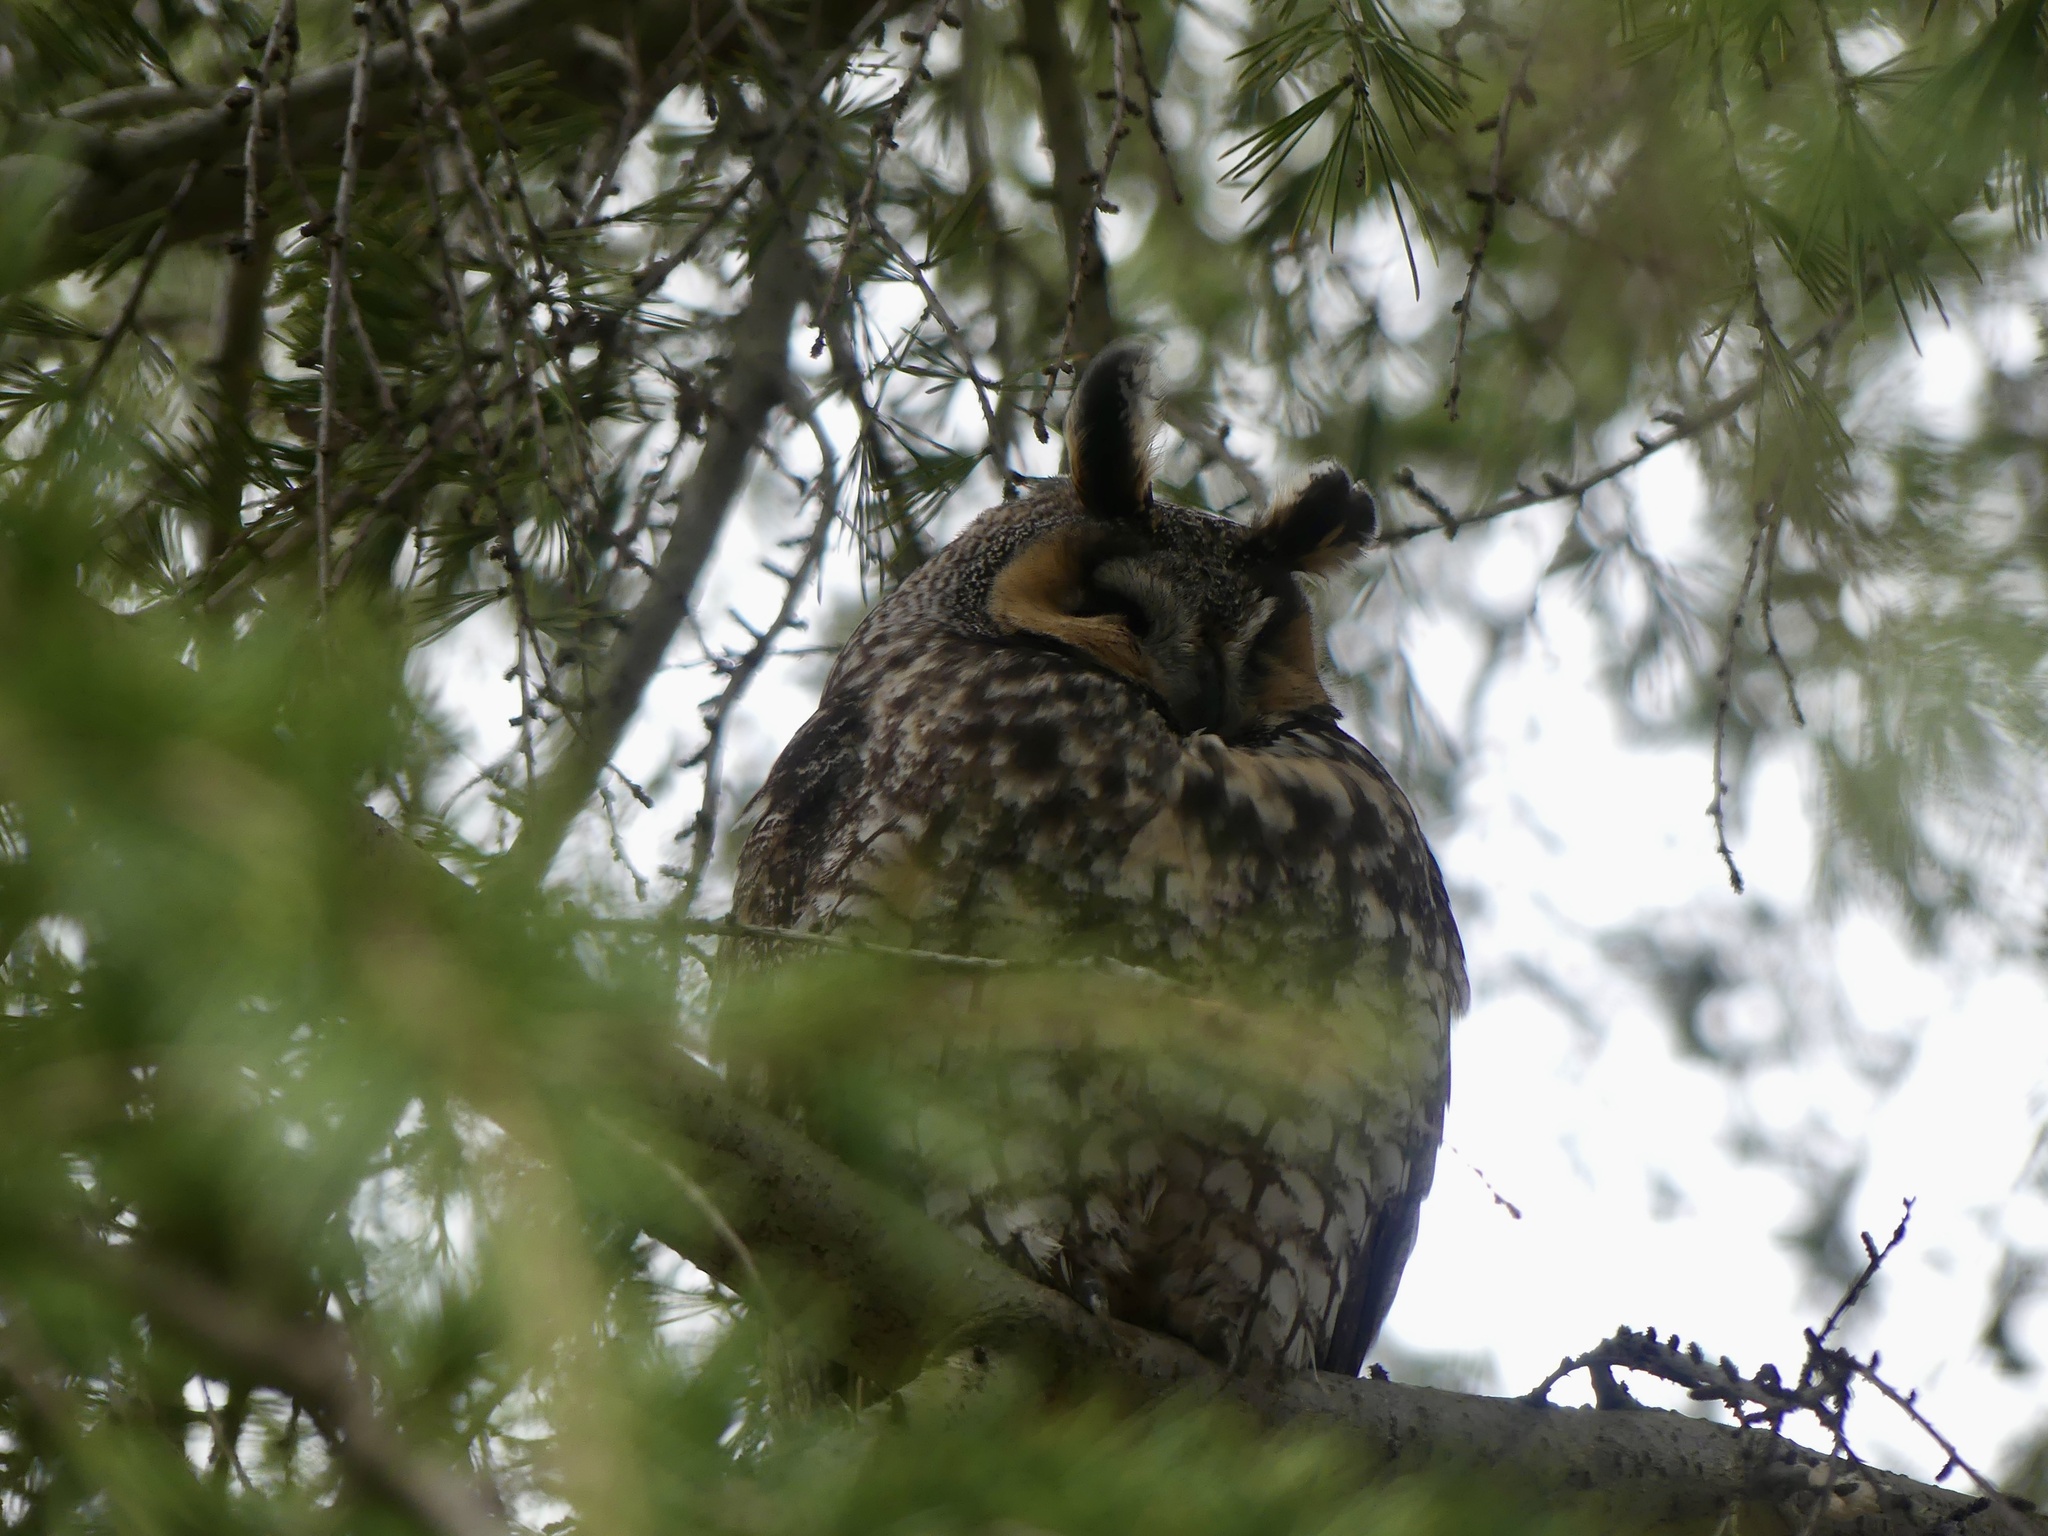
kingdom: Animalia
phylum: Chordata
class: Aves
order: Strigiformes
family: Strigidae
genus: Asio
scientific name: Asio otus
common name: Long-eared owl
